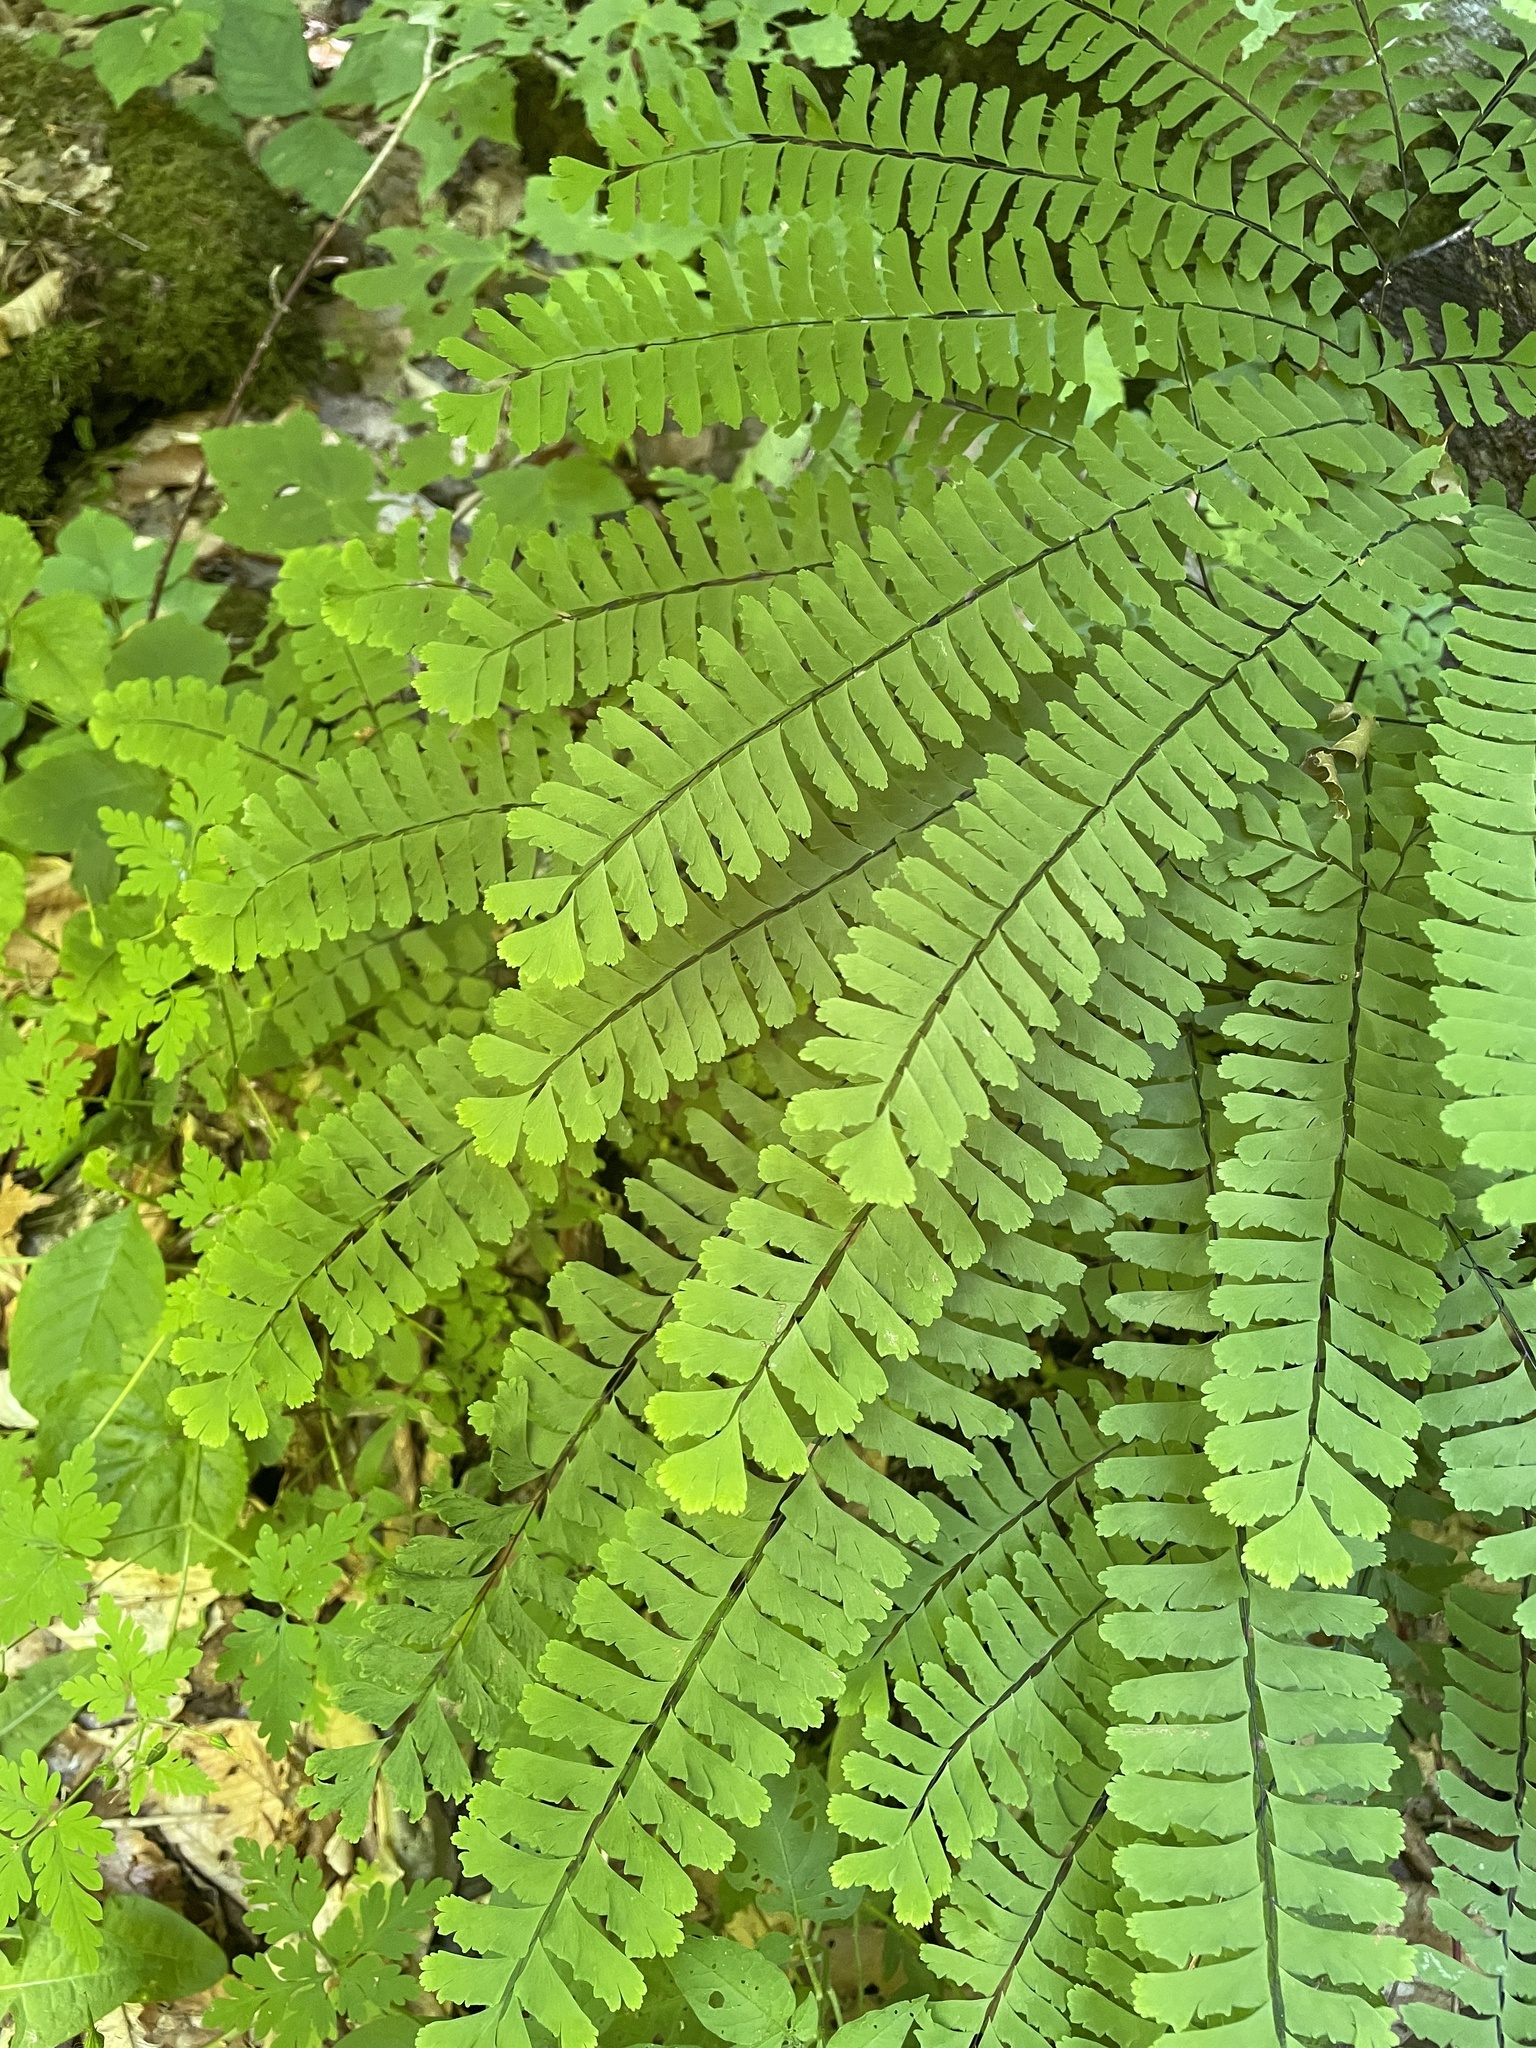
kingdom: Plantae
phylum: Tracheophyta
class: Polypodiopsida
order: Polypodiales
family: Pteridaceae
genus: Adiantum
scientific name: Adiantum pedatum
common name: Five-finger fern
